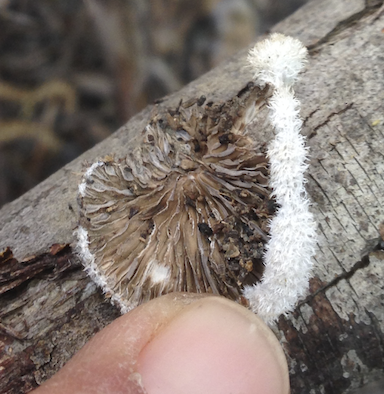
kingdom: Fungi
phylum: Basidiomycota
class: Agaricomycetes
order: Agaricales
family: Schizophyllaceae
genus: Schizophyllum
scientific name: Schizophyllum commune
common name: Common porecrust
